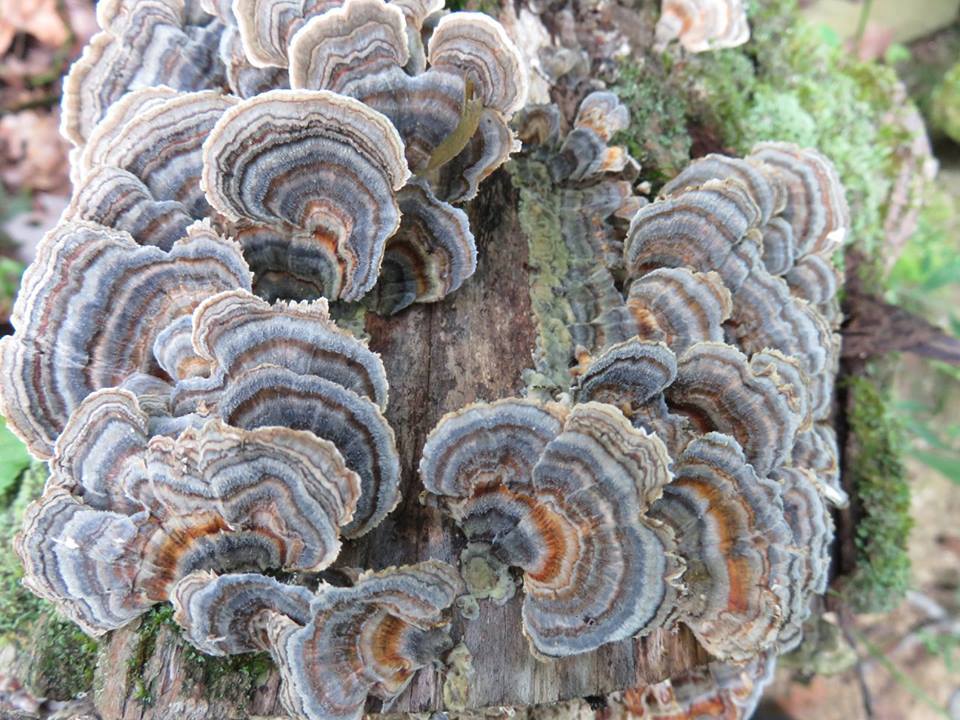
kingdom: Fungi
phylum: Basidiomycota
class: Agaricomycetes
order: Polyporales
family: Polyporaceae
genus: Trametes
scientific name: Trametes versicolor
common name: Turkeytail
